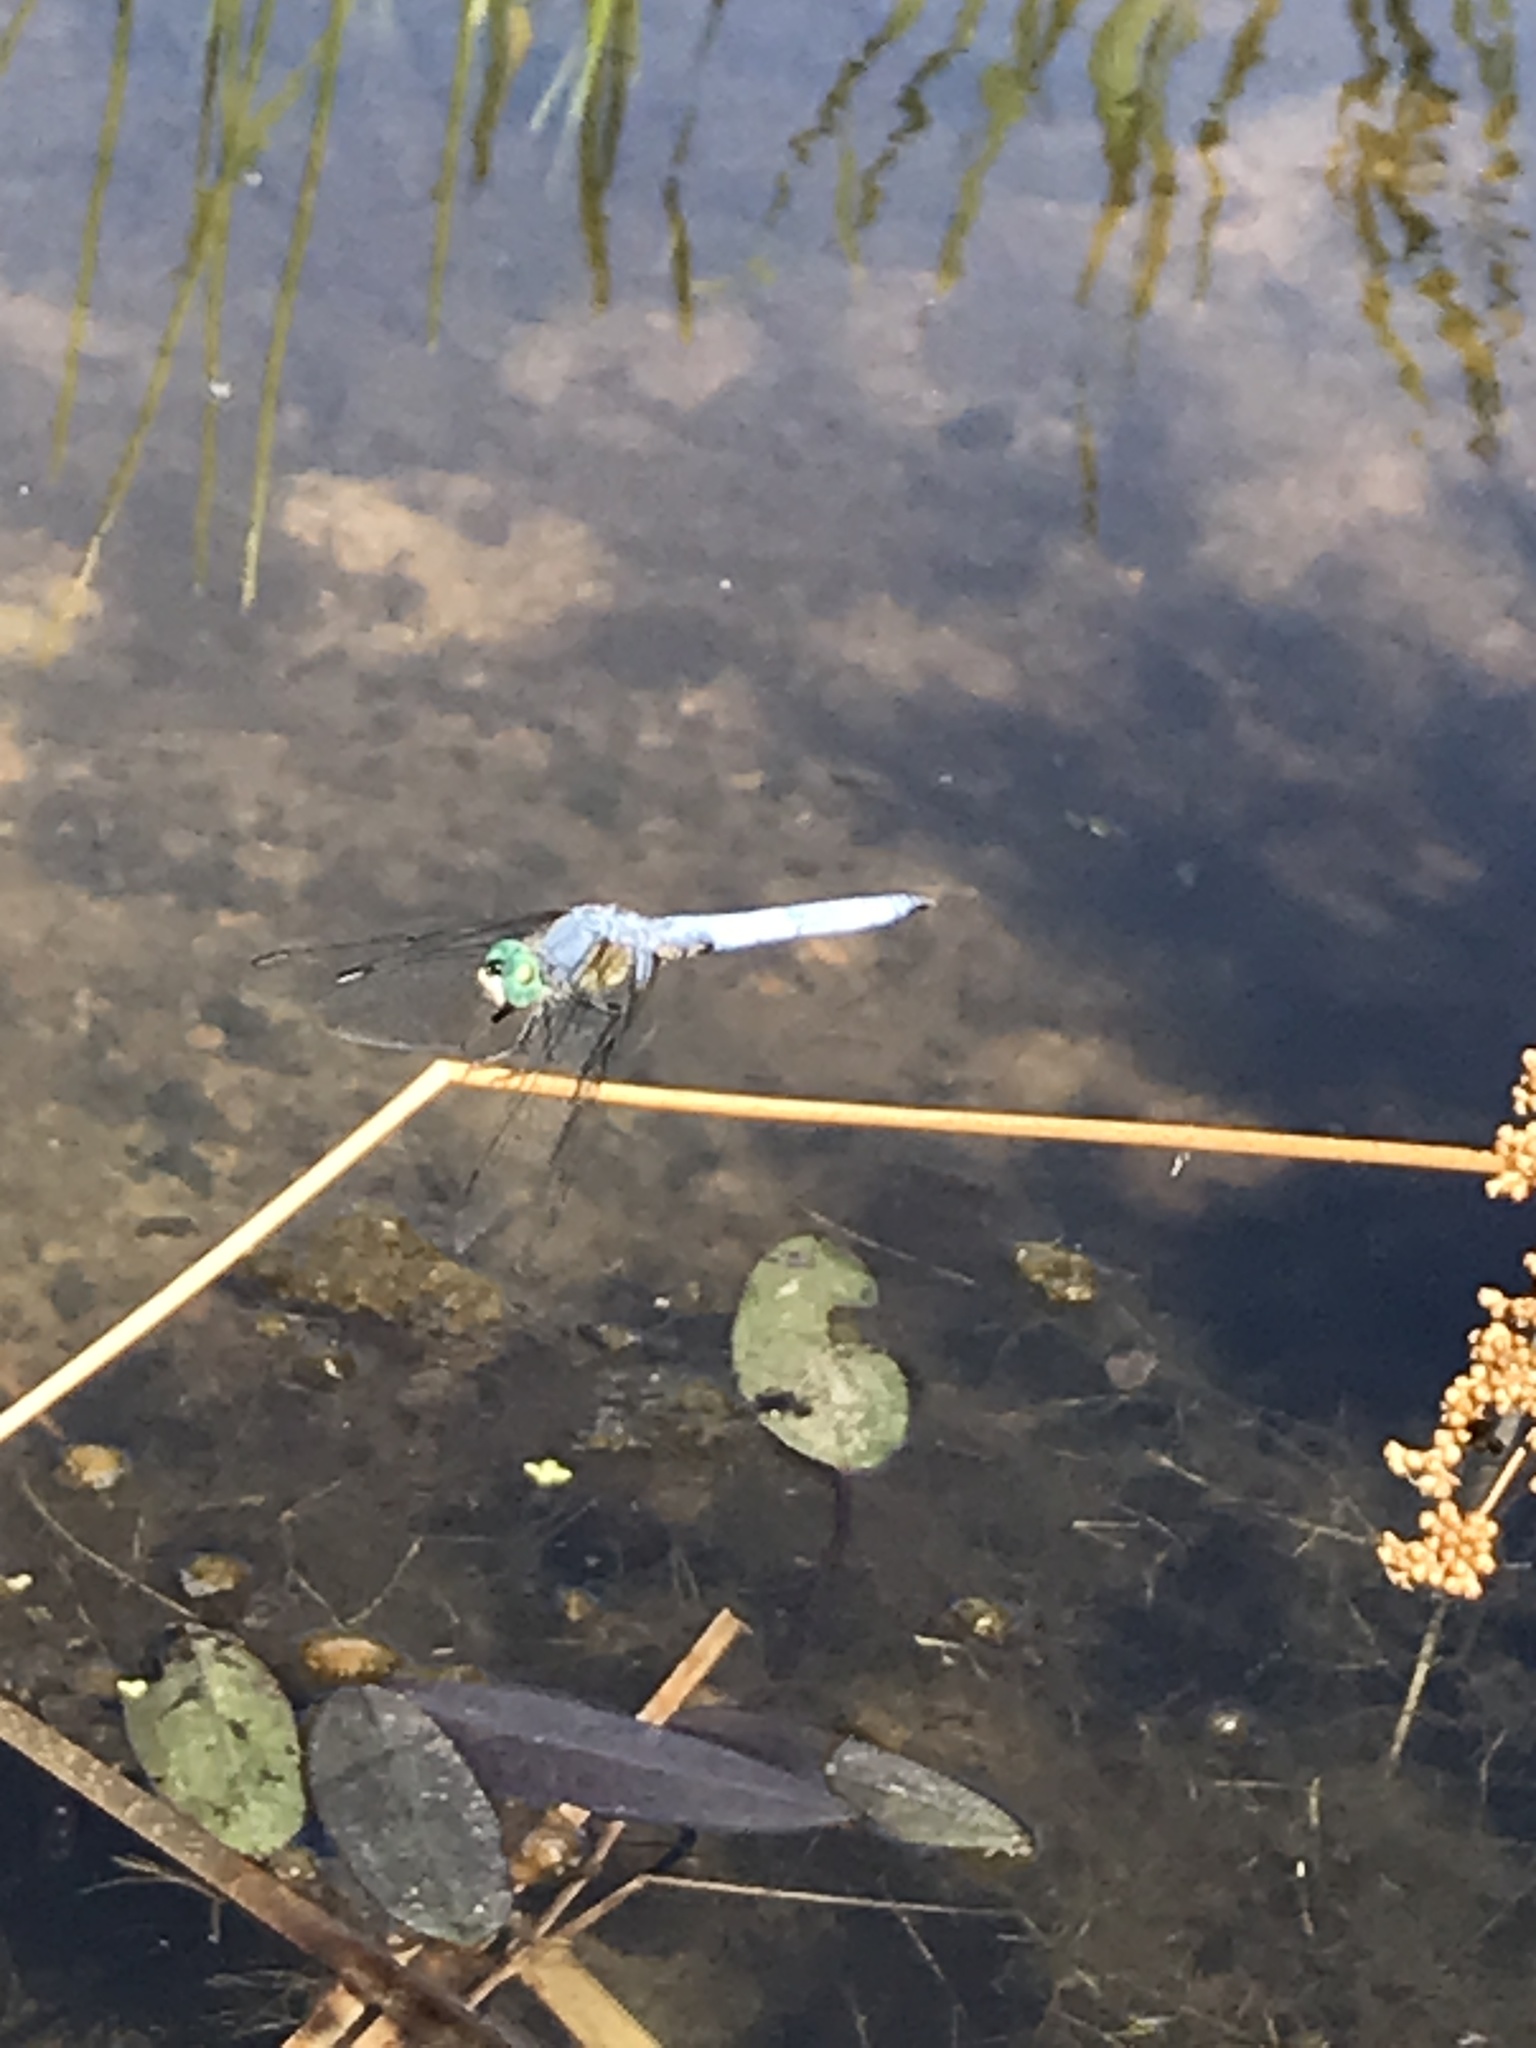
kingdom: Animalia
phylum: Arthropoda
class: Insecta
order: Odonata
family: Libellulidae
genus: Pachydiplax
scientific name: Pachydiplax longipennis
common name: Blue dasher
